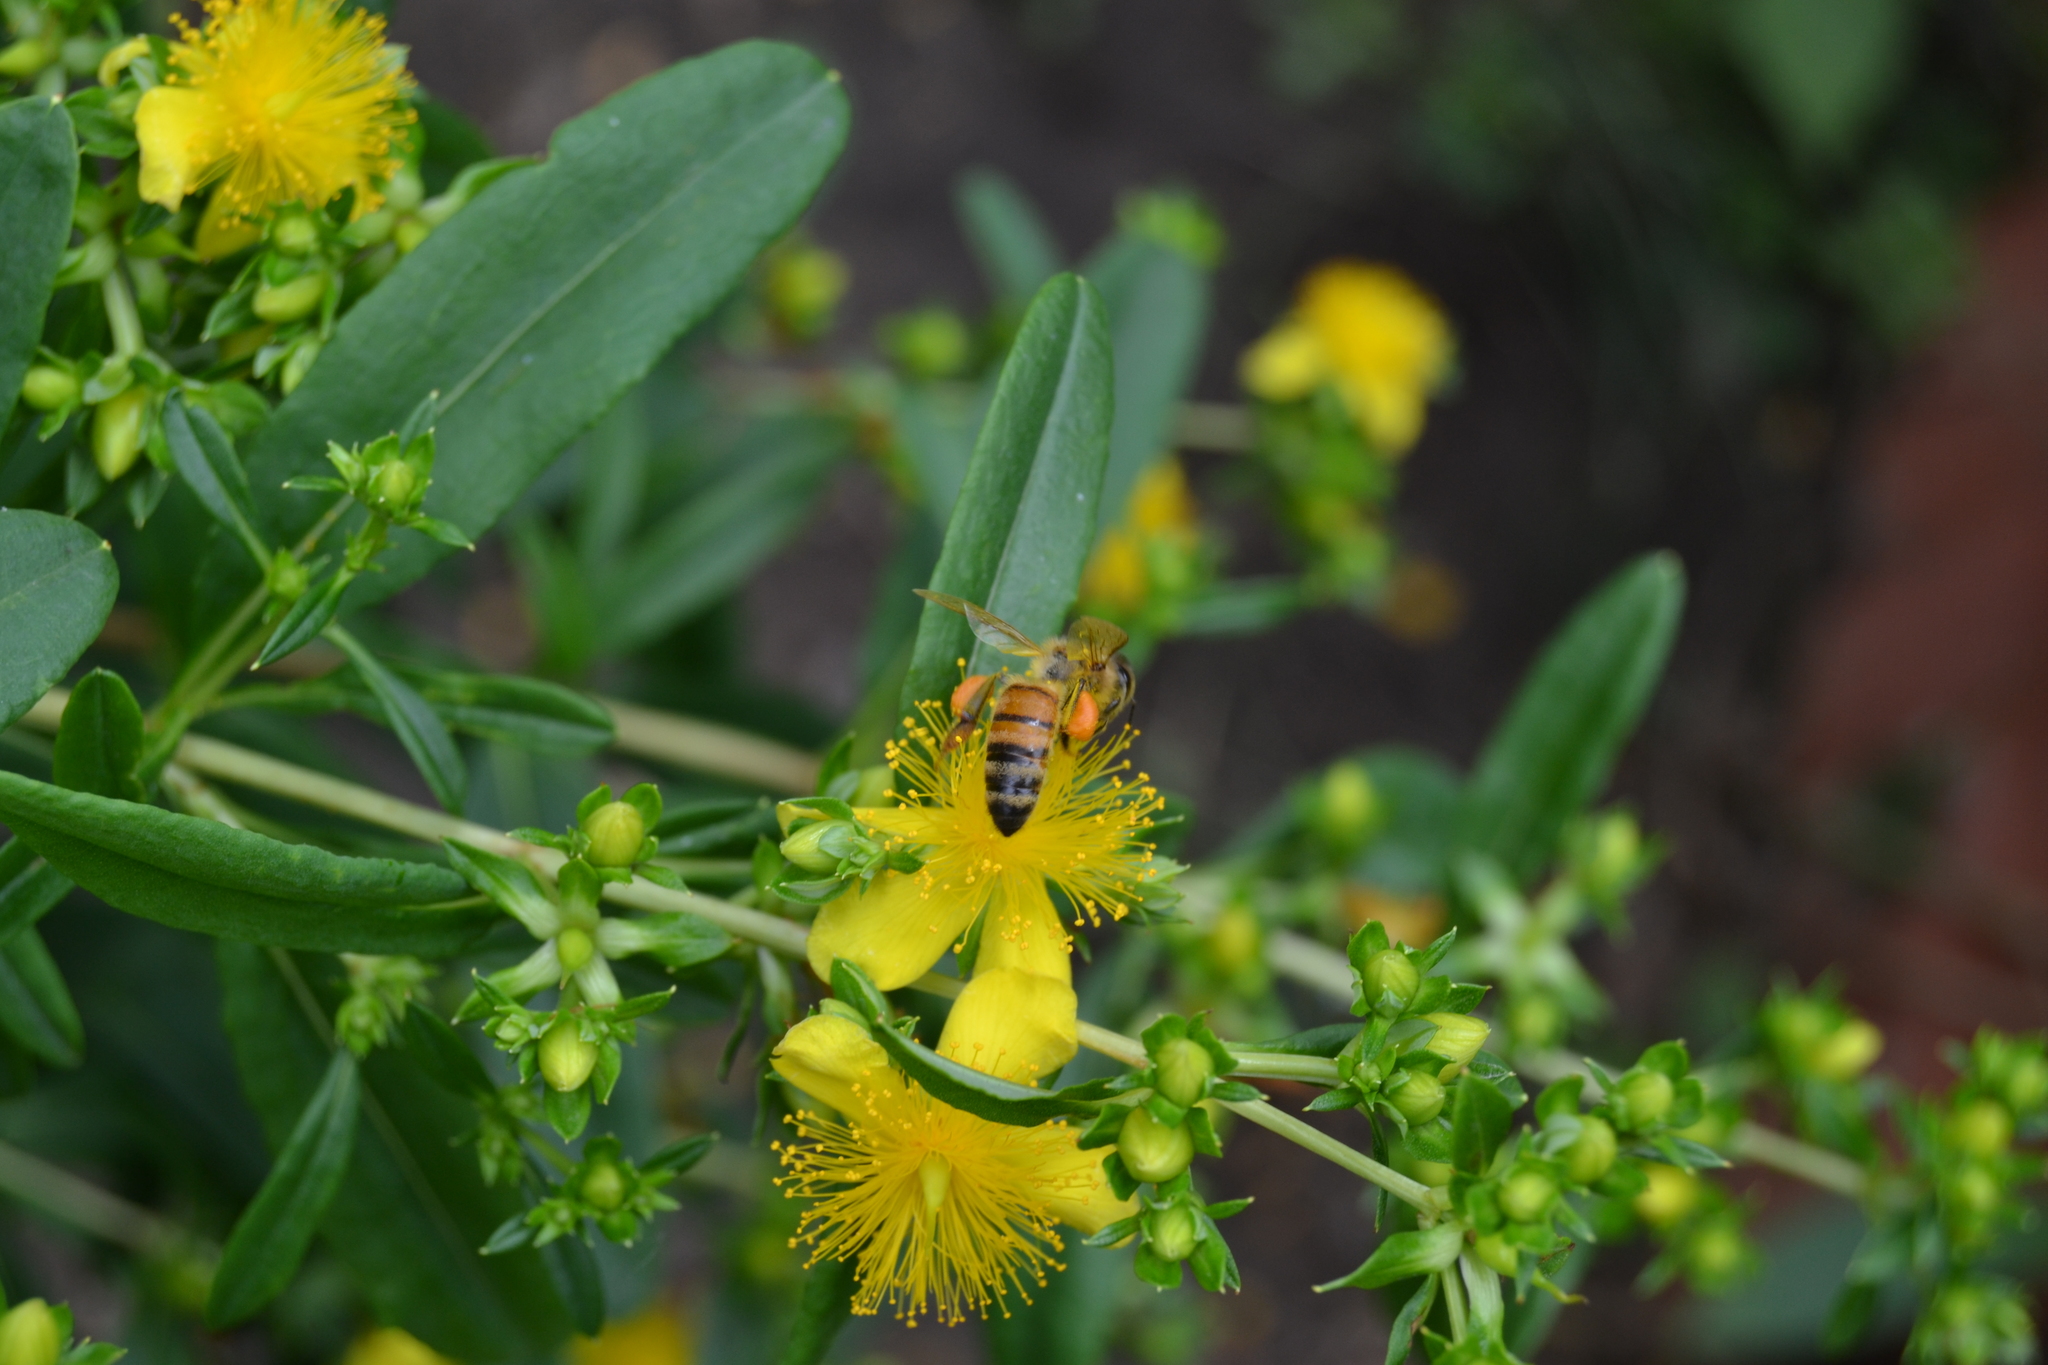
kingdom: Animalia
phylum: Arthropoda
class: Insecta
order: Hymenoptera
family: Apidae
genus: Apis
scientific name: Apis mellifera
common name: Honey bee
